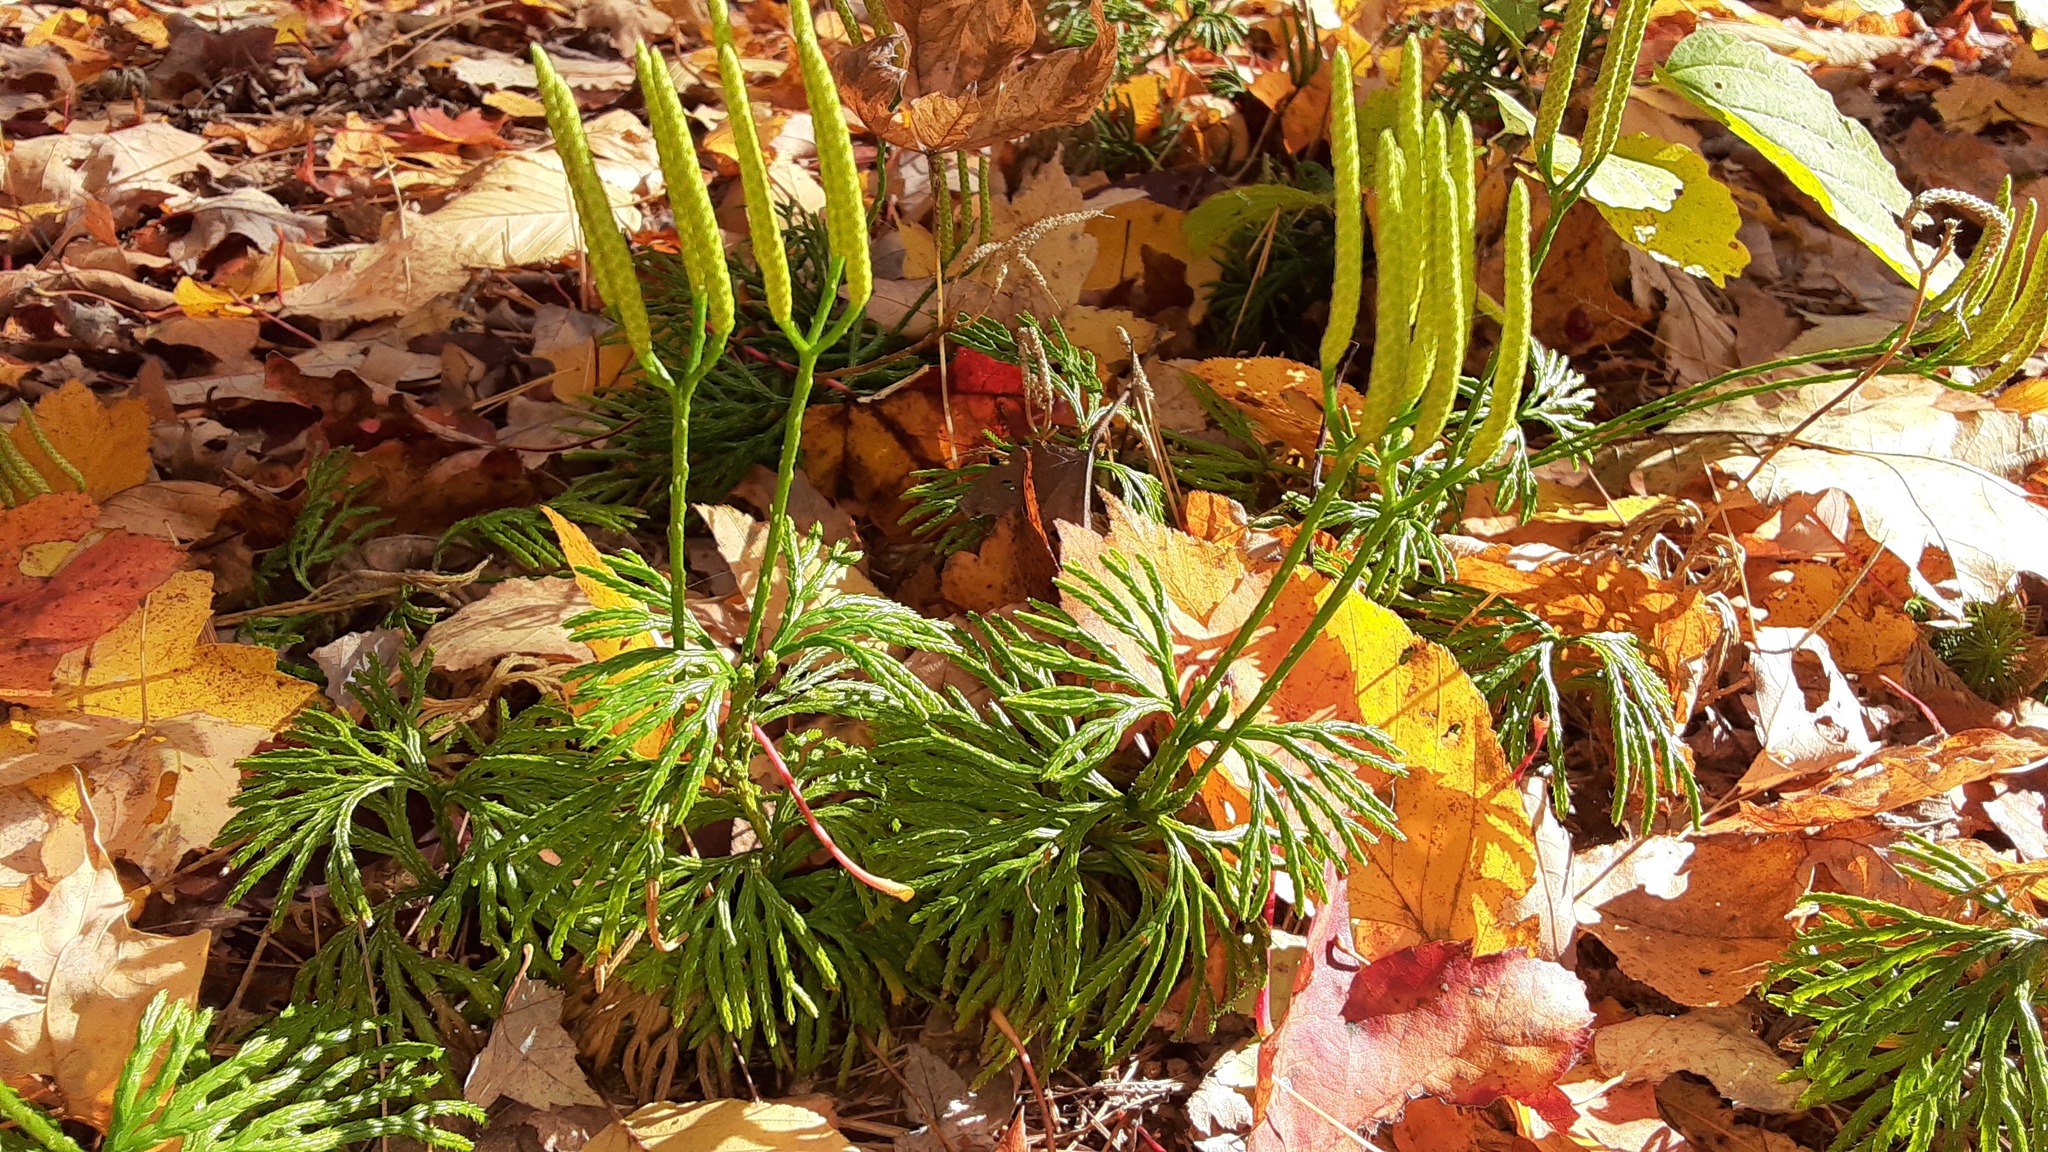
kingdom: Plantae
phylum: Tracheophyta
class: Lycopodiopsida
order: Lycopodiales
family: Lycopodiaceae
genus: Diphasiastrum
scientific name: Diphasiastrum digitatum
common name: Southern running-pine
